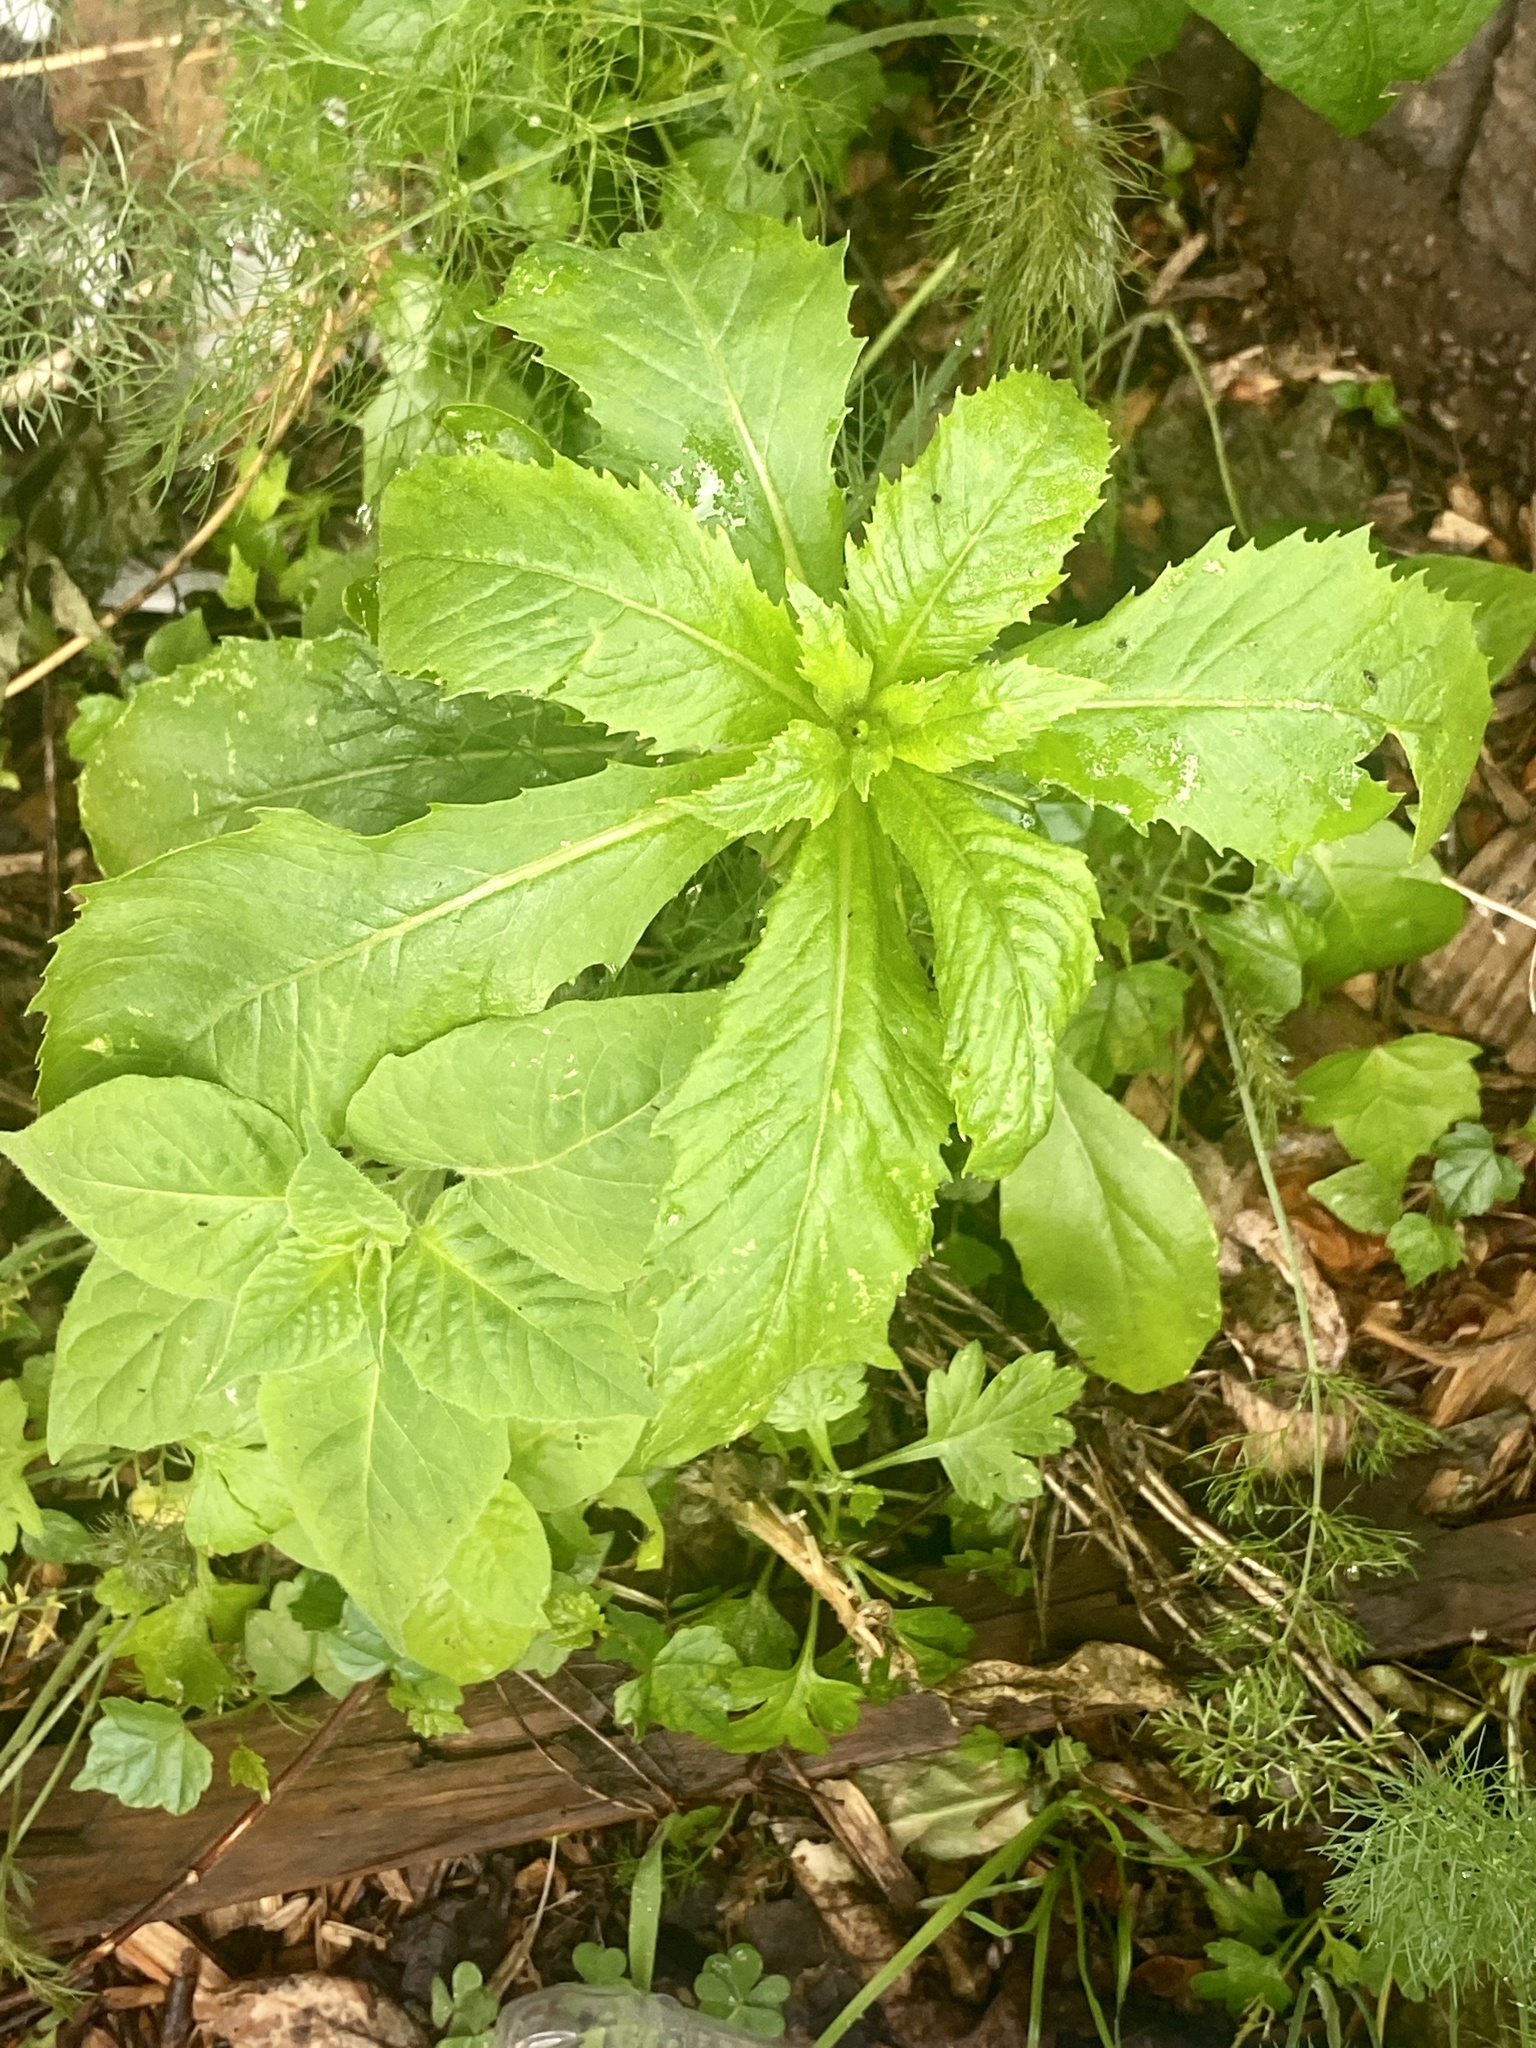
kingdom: Plantae
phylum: Tracheophyta
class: Magnoliopsida
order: Asterales
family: Asteraceae
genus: Erechtites
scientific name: Erechtites hieraciifolius
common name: American burnweed
